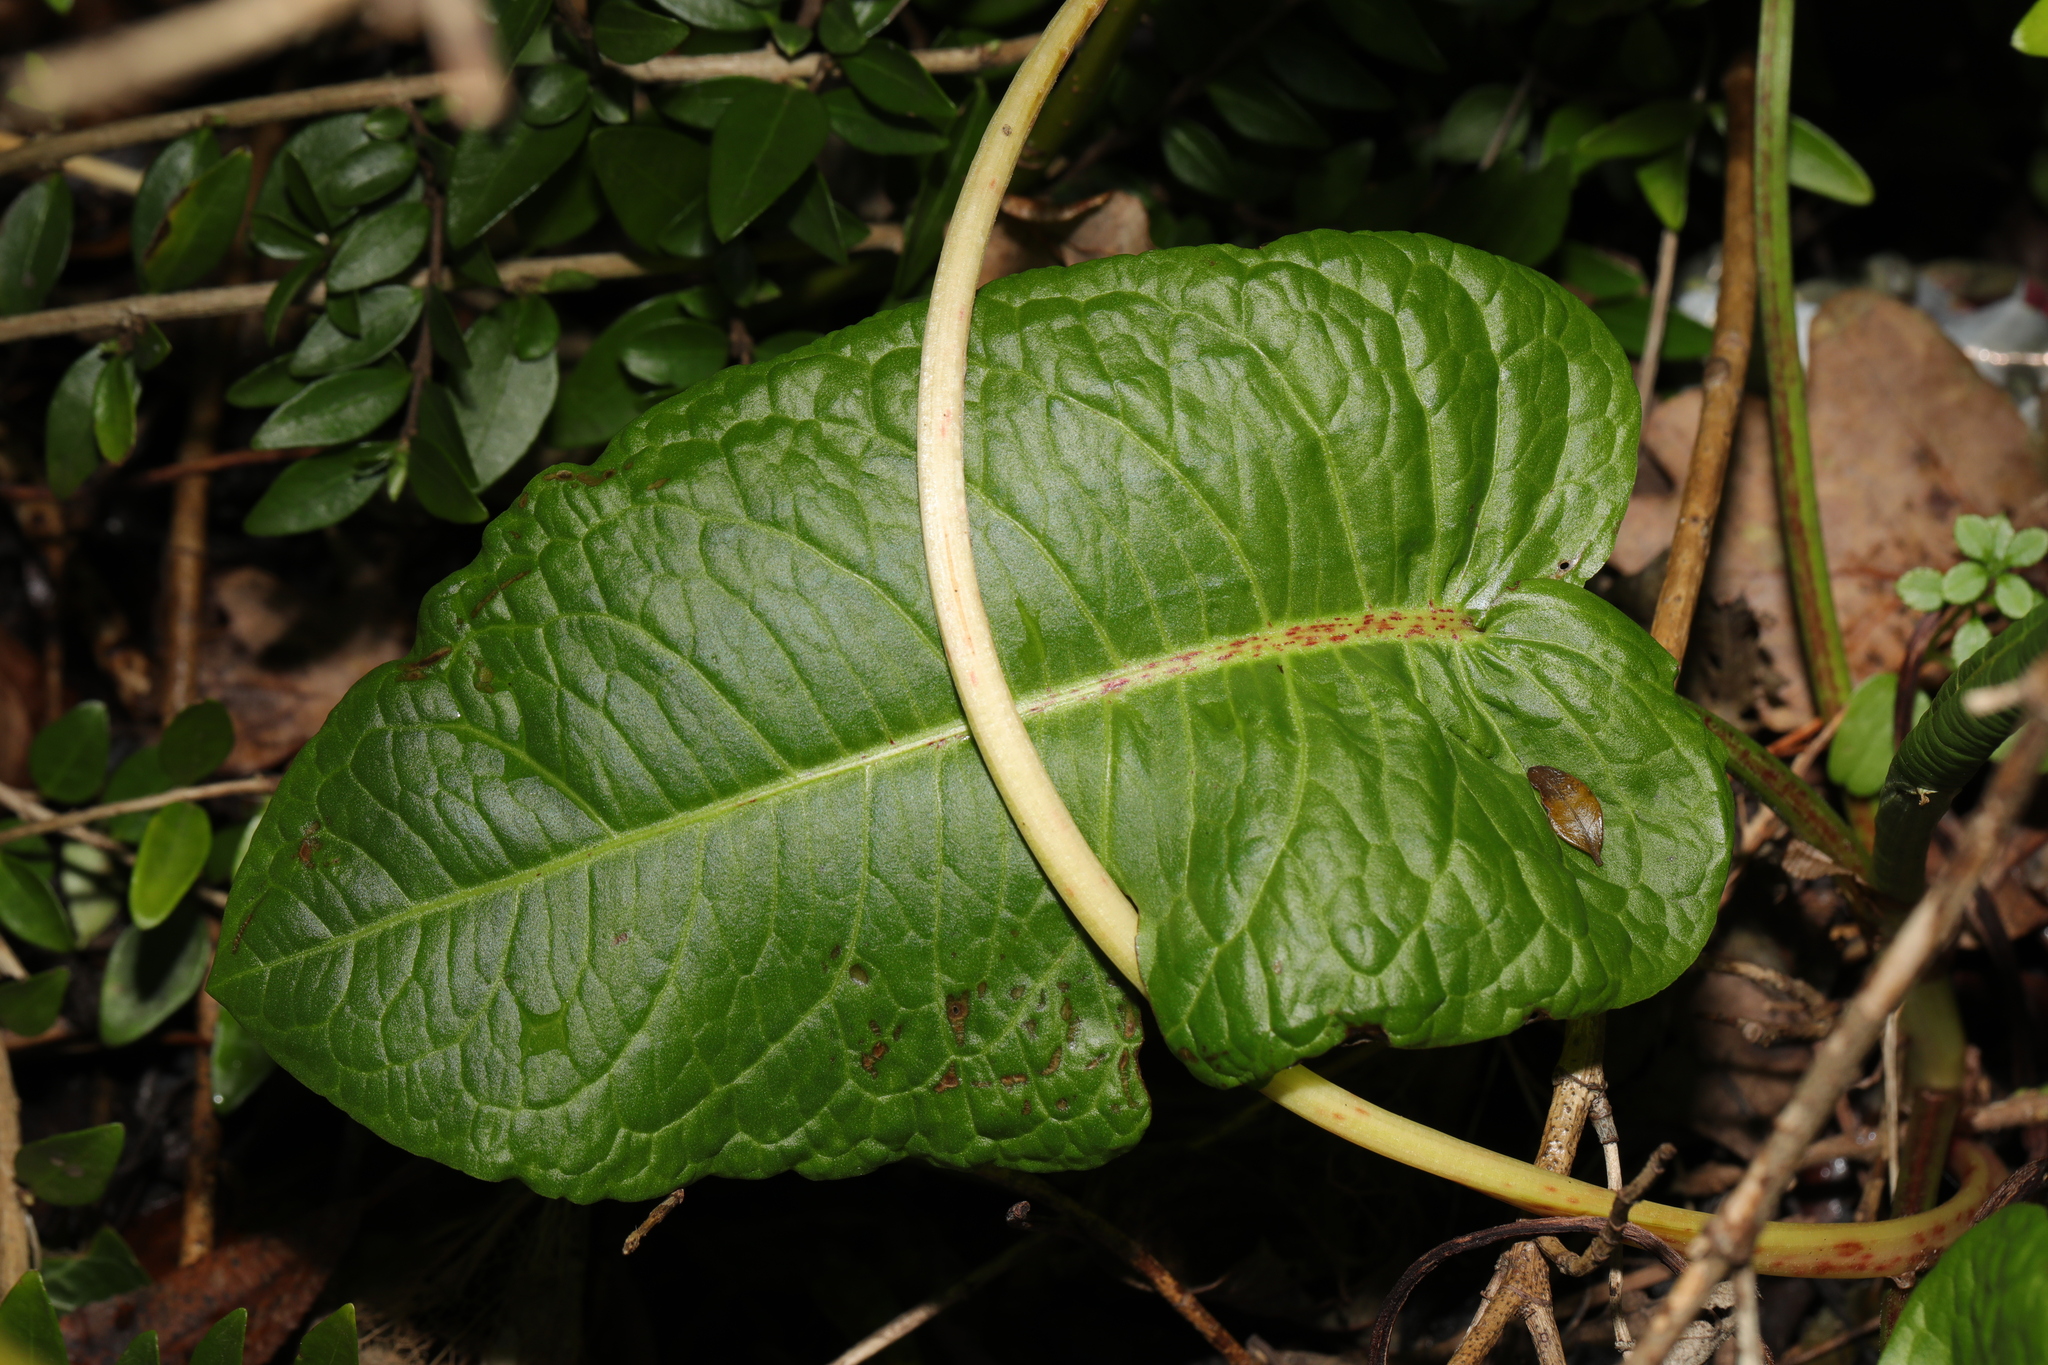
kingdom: Plantae
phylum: Tracheophyta
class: Magnoliopsida
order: Caryophyllales
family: Polygonaceae
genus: Rumex
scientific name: Rumex obtusifolius
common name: Bitter dock
